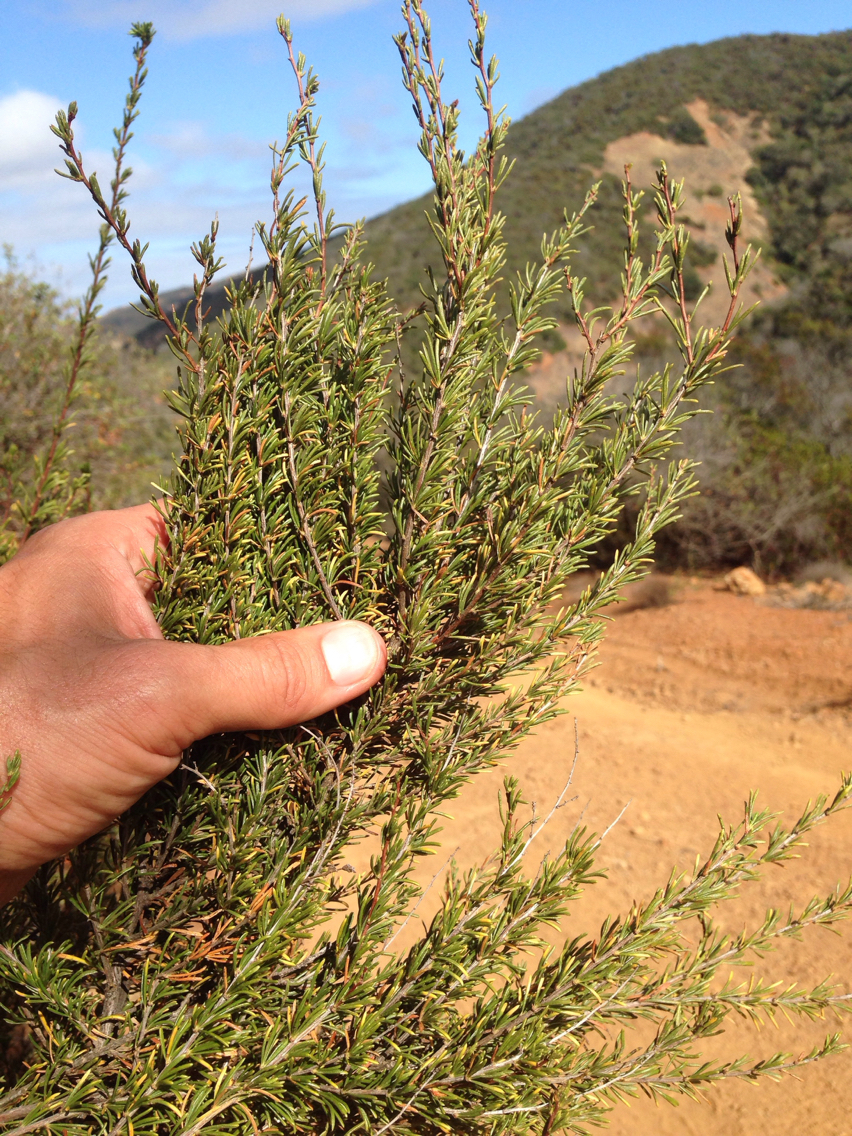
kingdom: Plantae
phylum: Tracheophyta
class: Magnoliopsida
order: Rosales
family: Rosaceae
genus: Adenostoma
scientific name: Adenostoma fasciculatum
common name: Chamise
